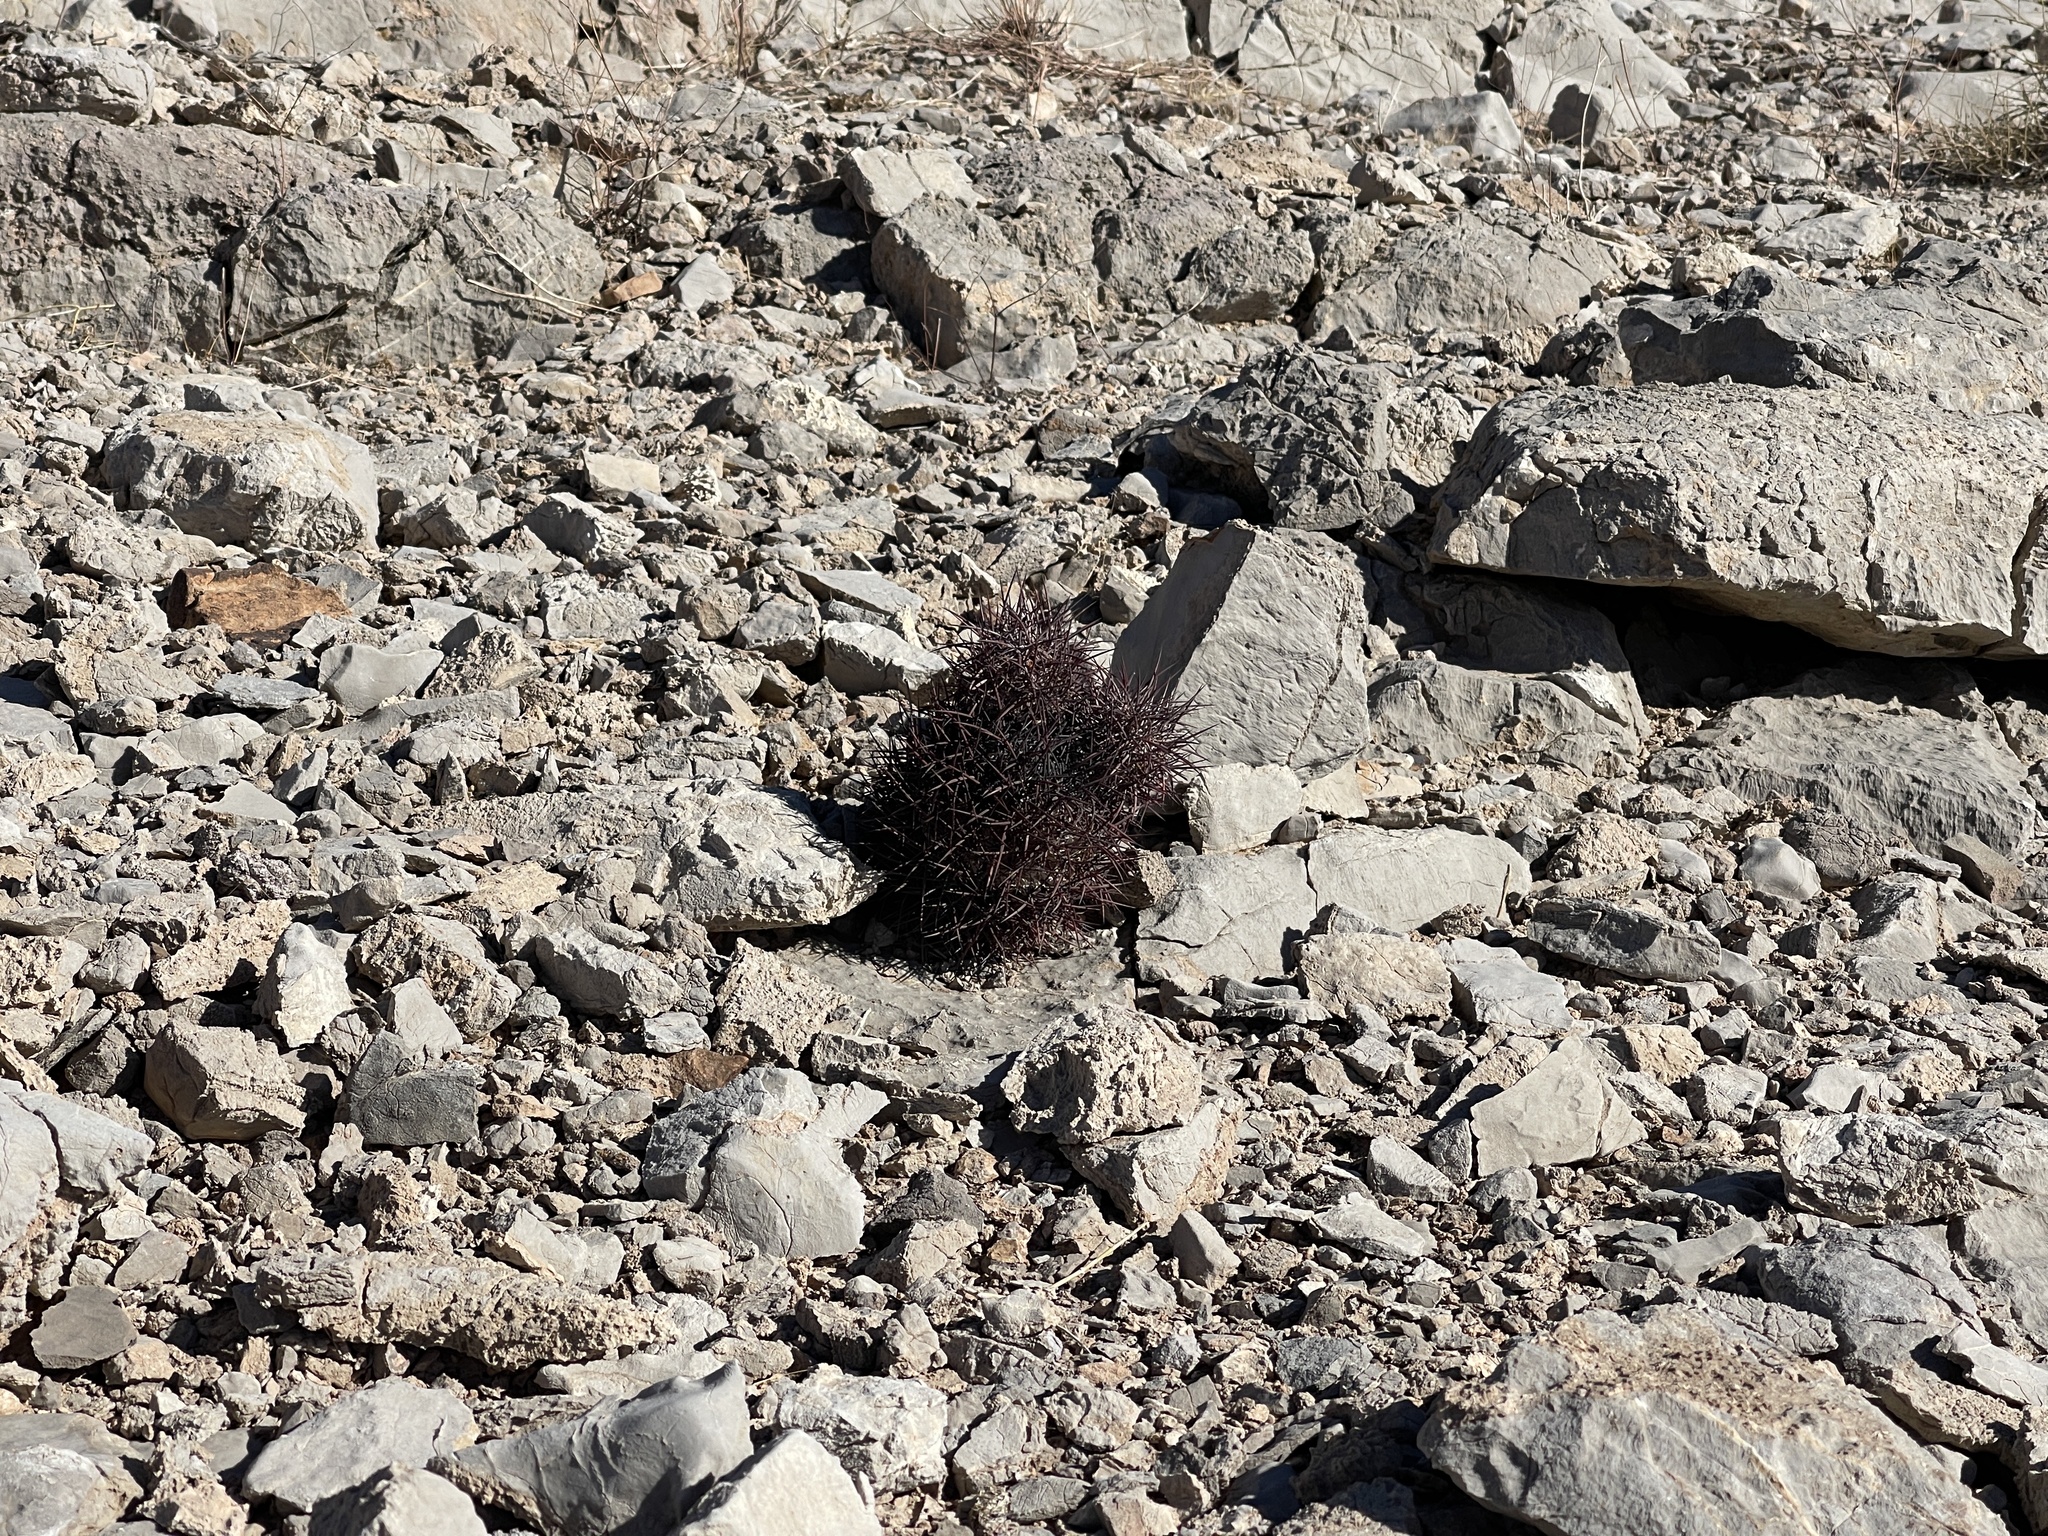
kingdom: Plantae
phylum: Tracheophyta
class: Magnoliopsida
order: Caryophyllales
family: Cactaceae
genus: Sclerocactus
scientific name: Sclerocactus johnsonii
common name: Eight-spine fishhook cactus
